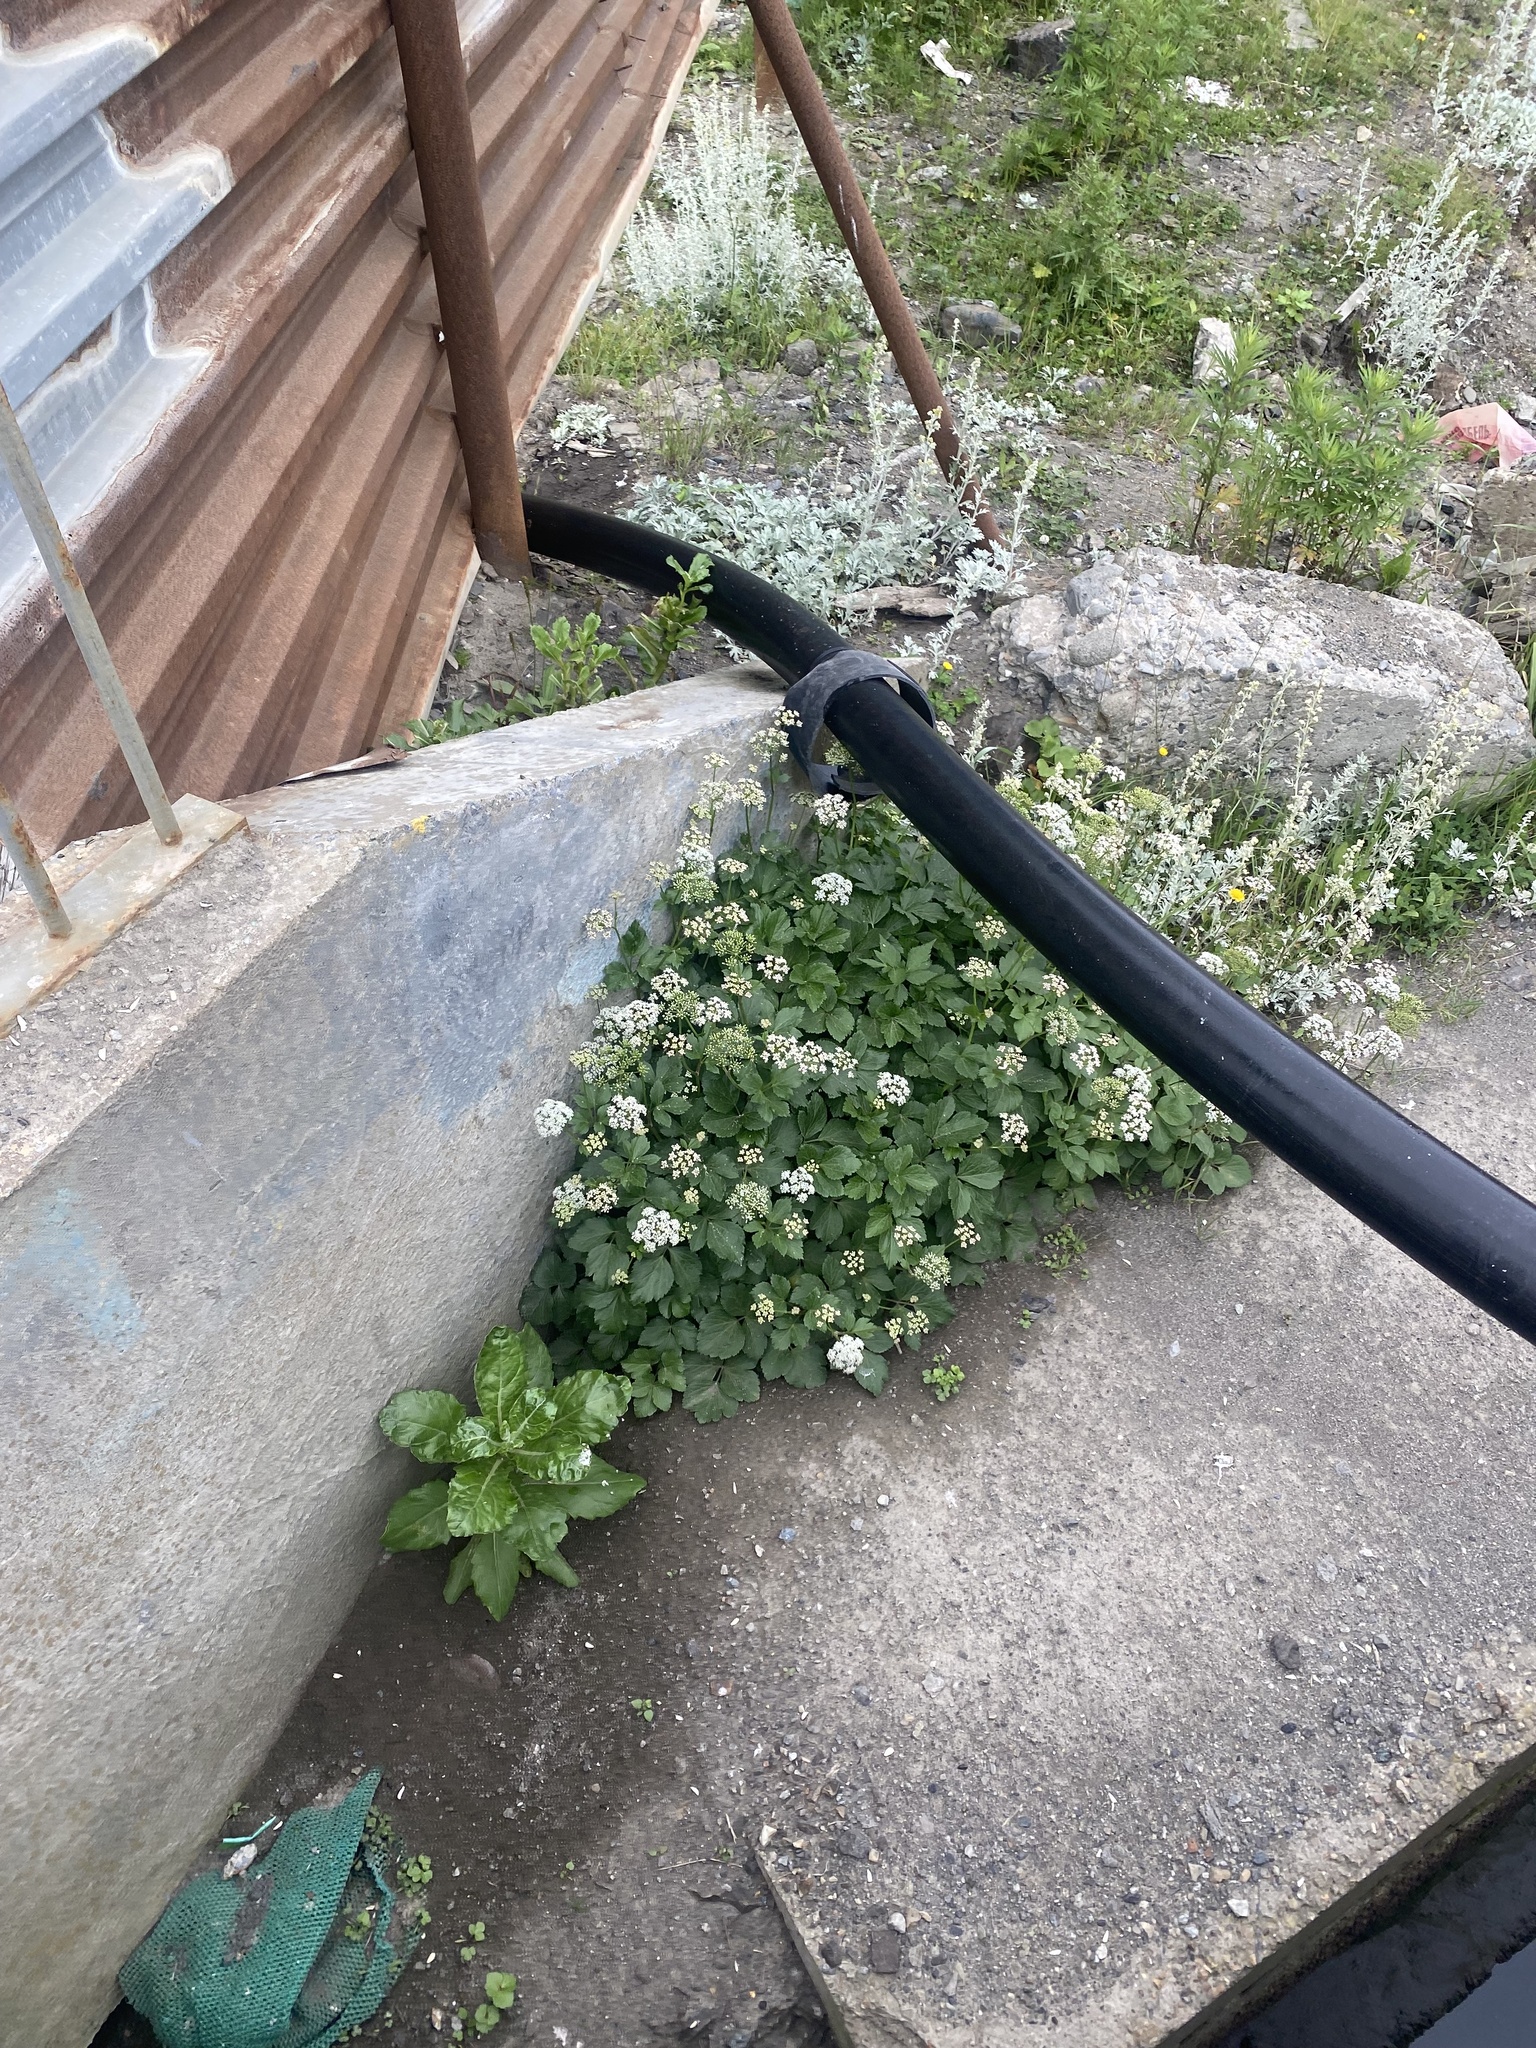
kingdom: Plantae
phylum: Tracheophyta
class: Magnoliopsida
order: Apiales
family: Apiaceae
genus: Ligusticum
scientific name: Ligusticum scothicum
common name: Beach lovage
